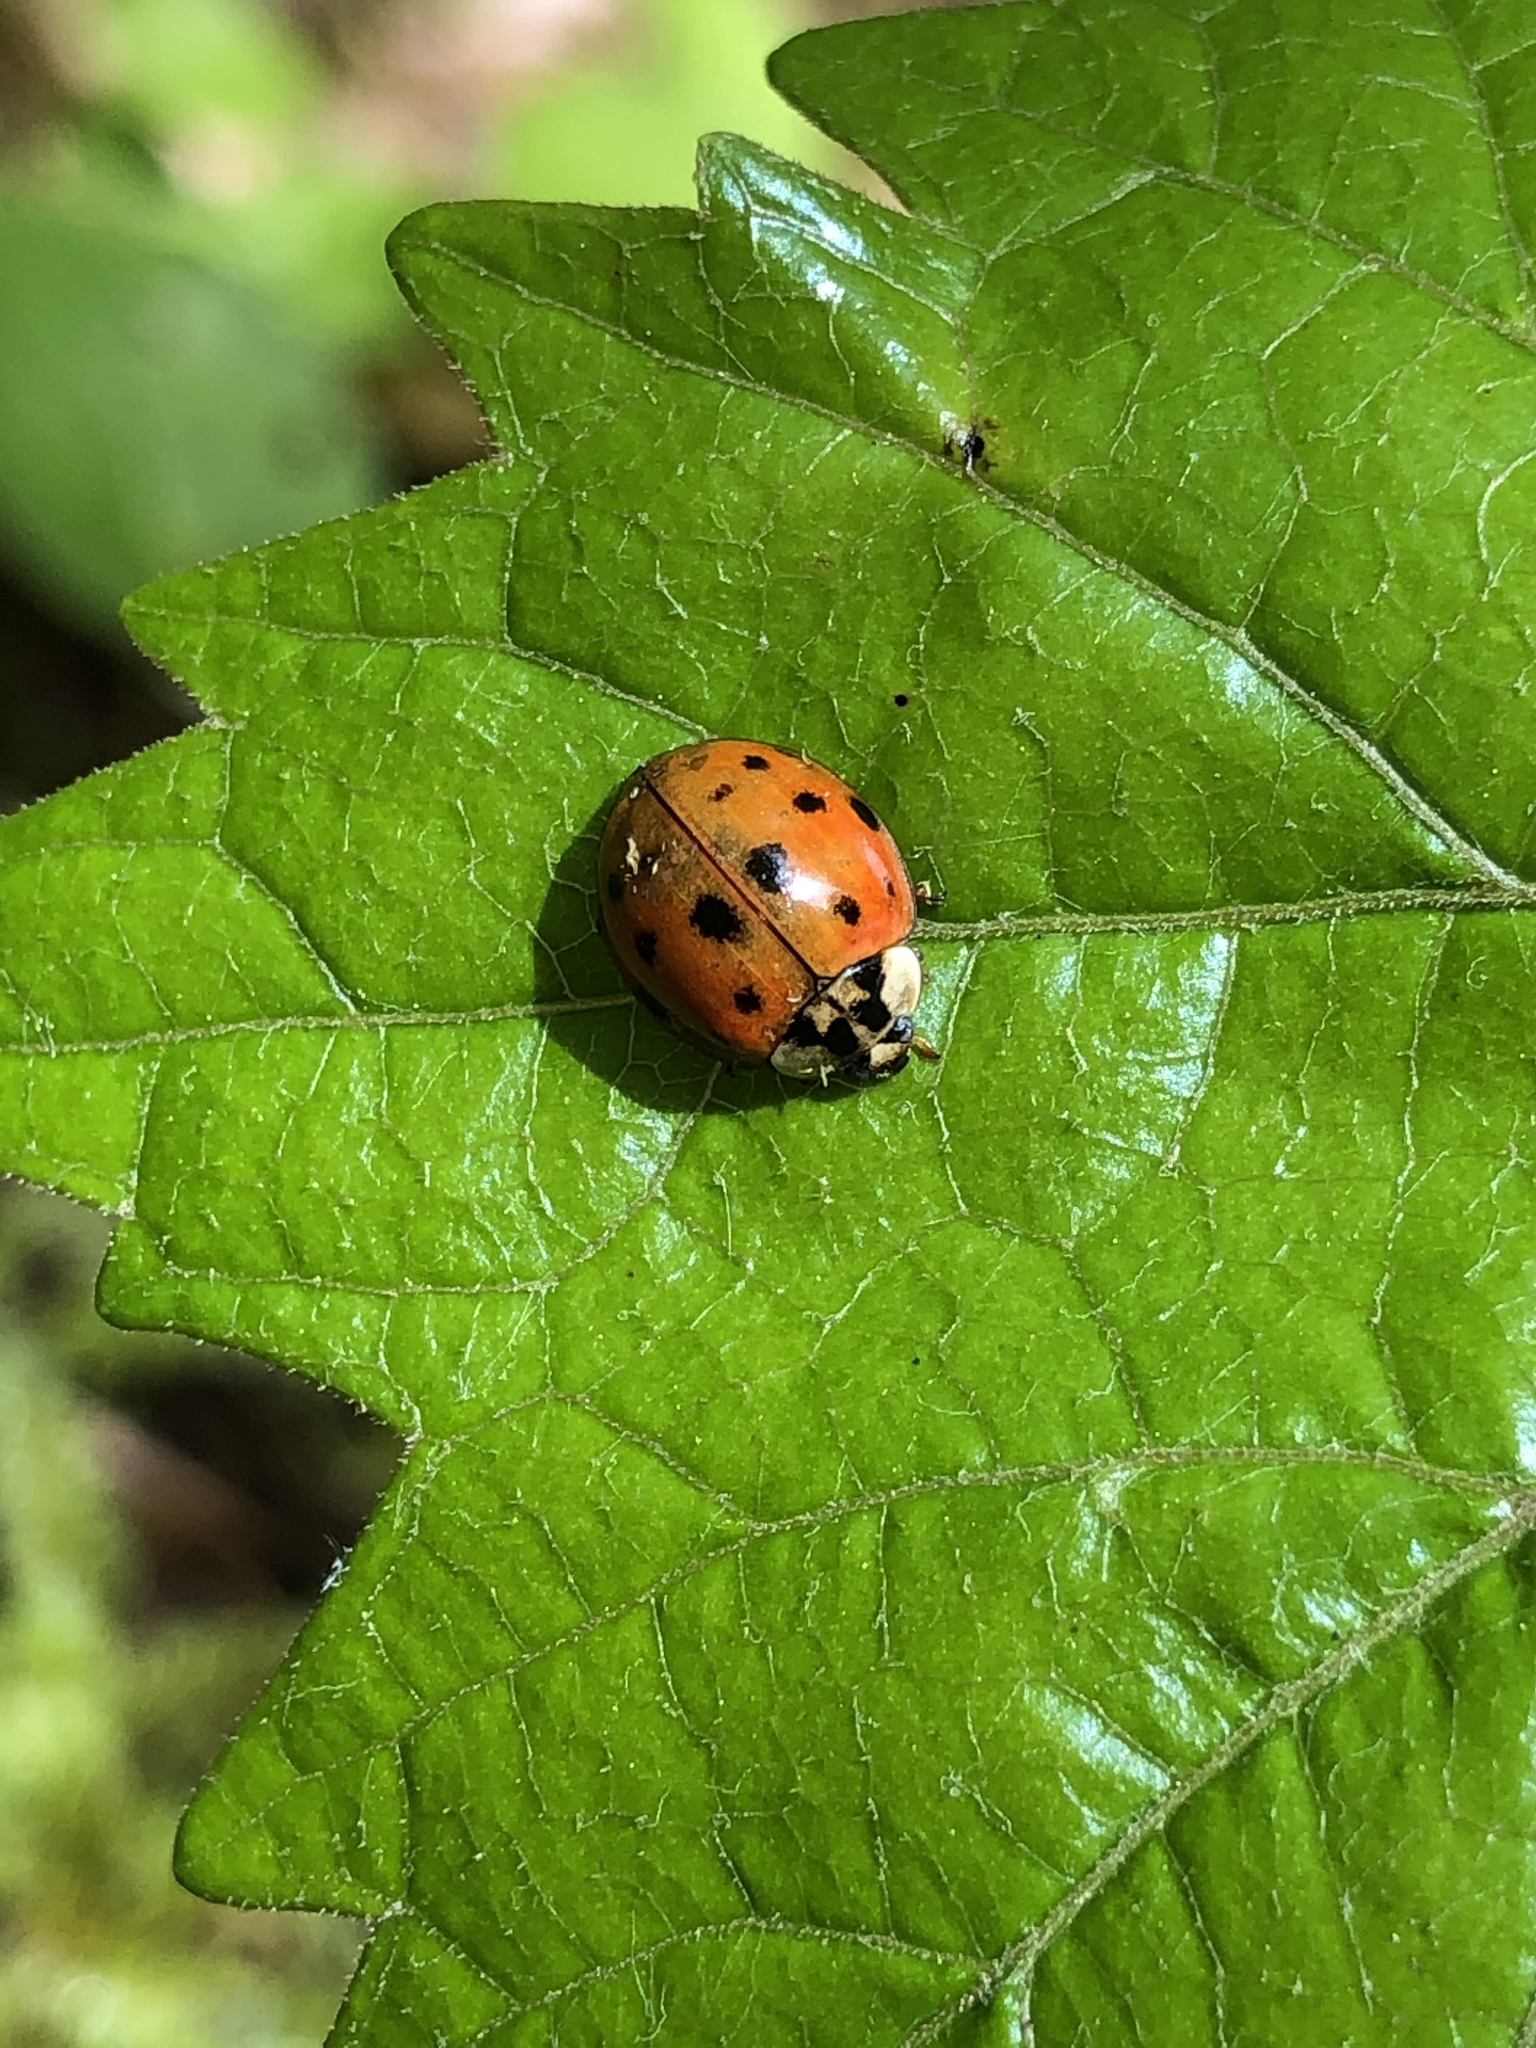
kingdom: Animalia
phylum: Arthropoda
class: Insecta
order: Coleoptera
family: Coccinellidae
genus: Harmonia
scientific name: Harmonia axyridis
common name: Harlequin ladybird
